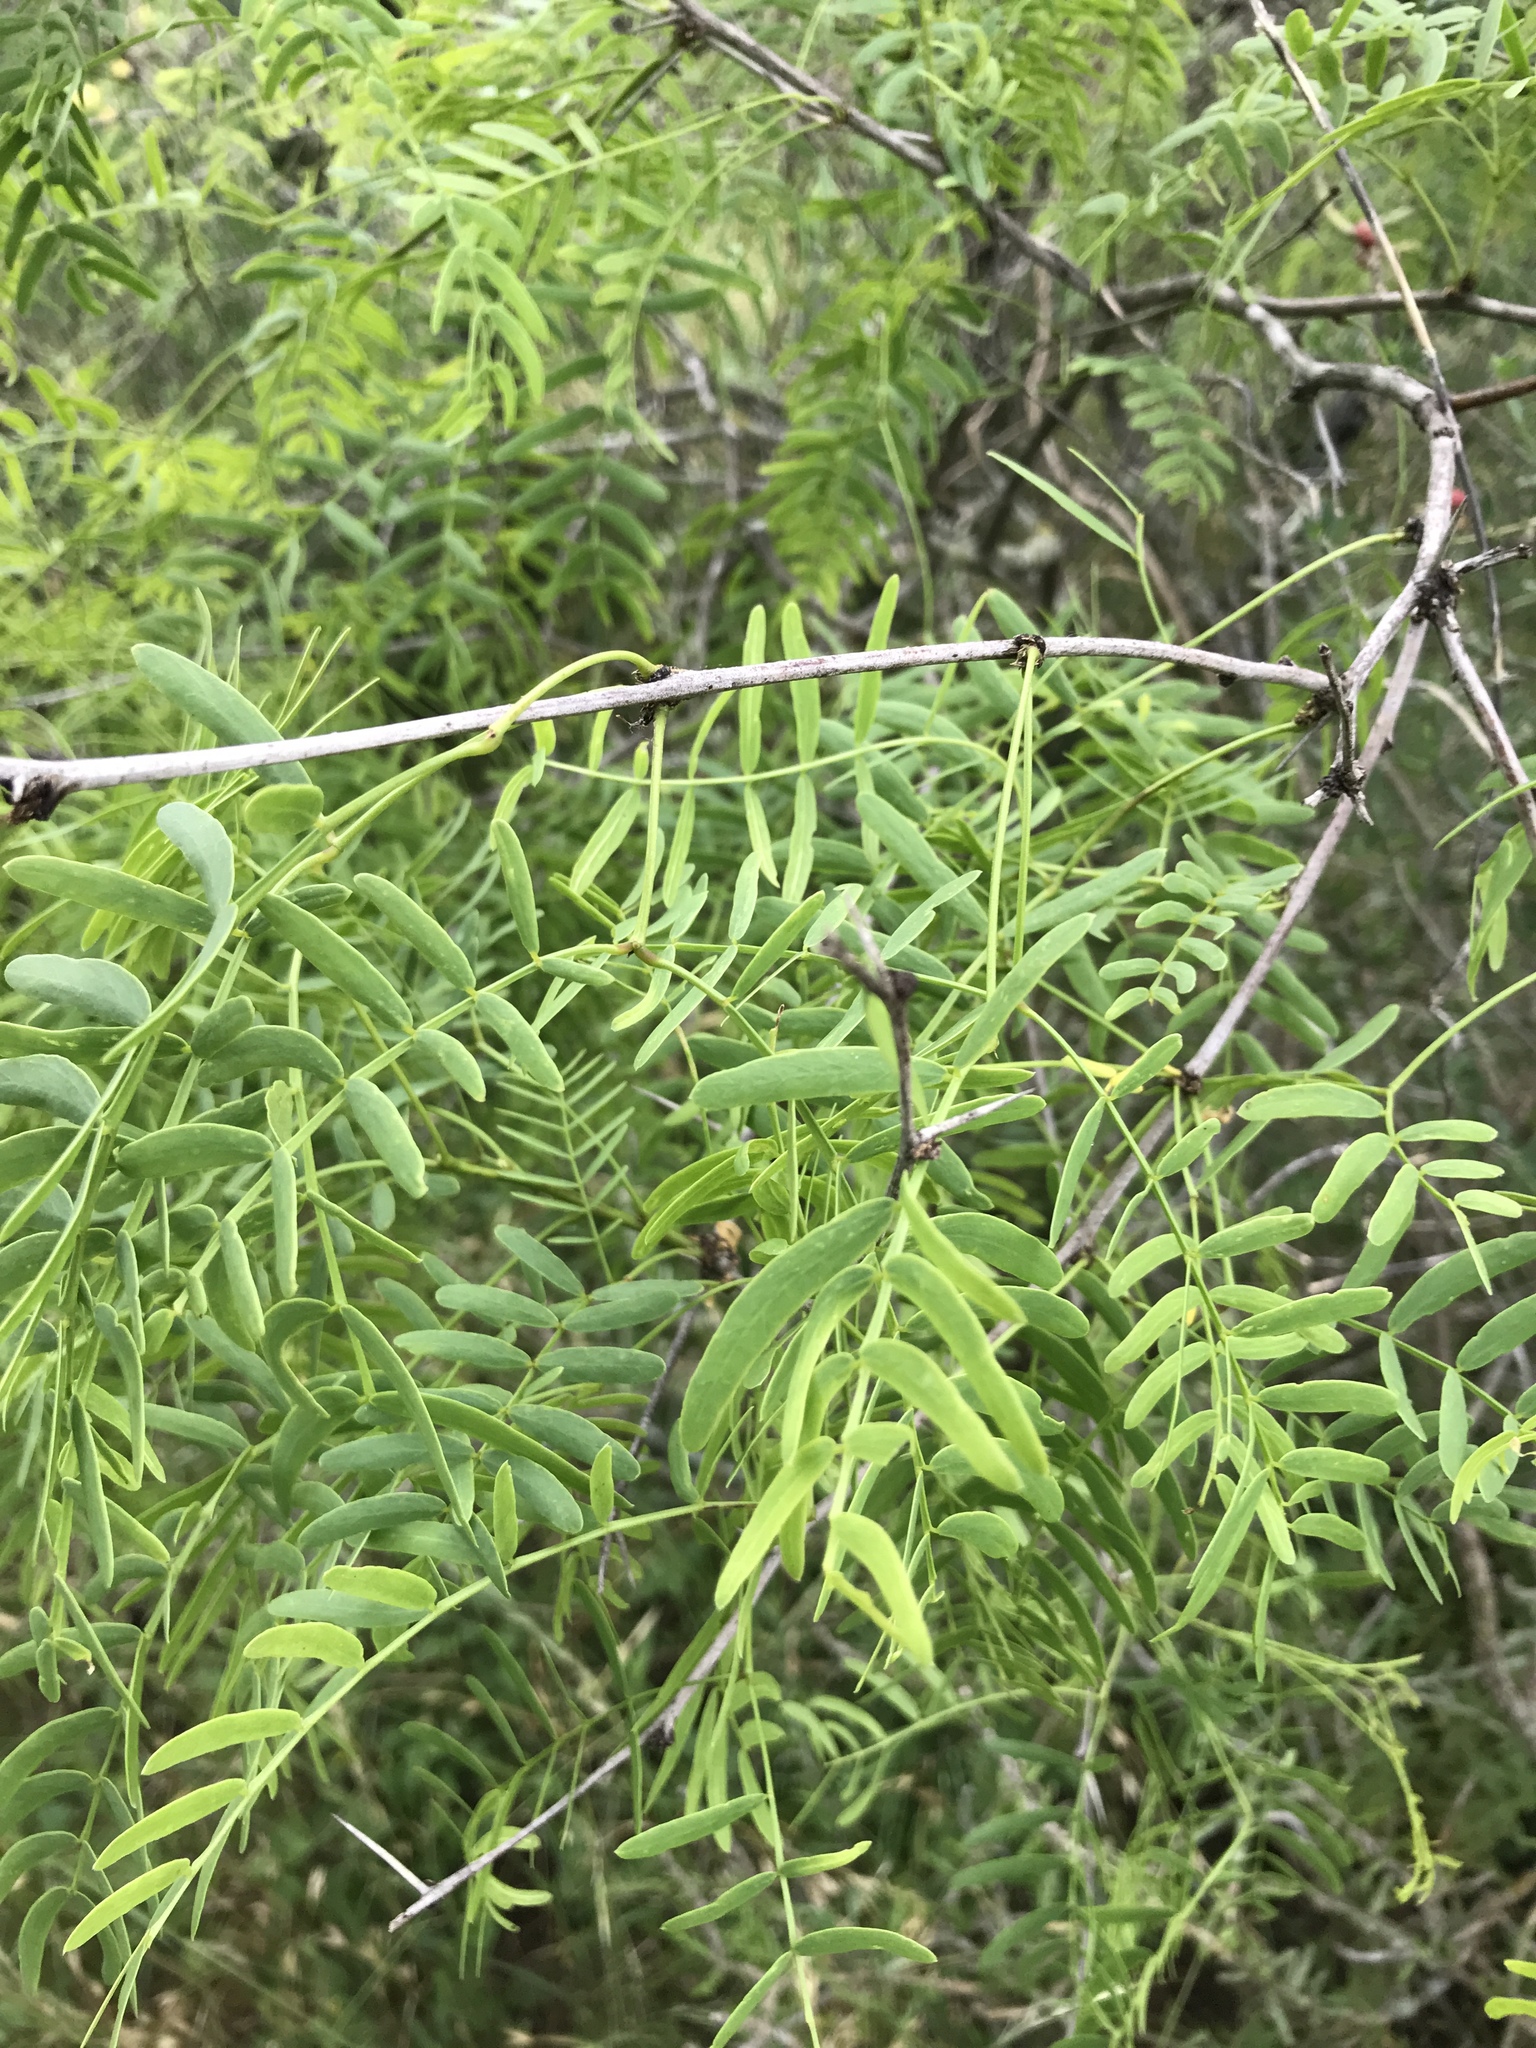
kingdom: Plantae
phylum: Tracheophyta
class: Magnoliopsida
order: Fabales
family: Fabaceae
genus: Prosopis
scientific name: Prosopis glandulosa
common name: Honey mesquite
